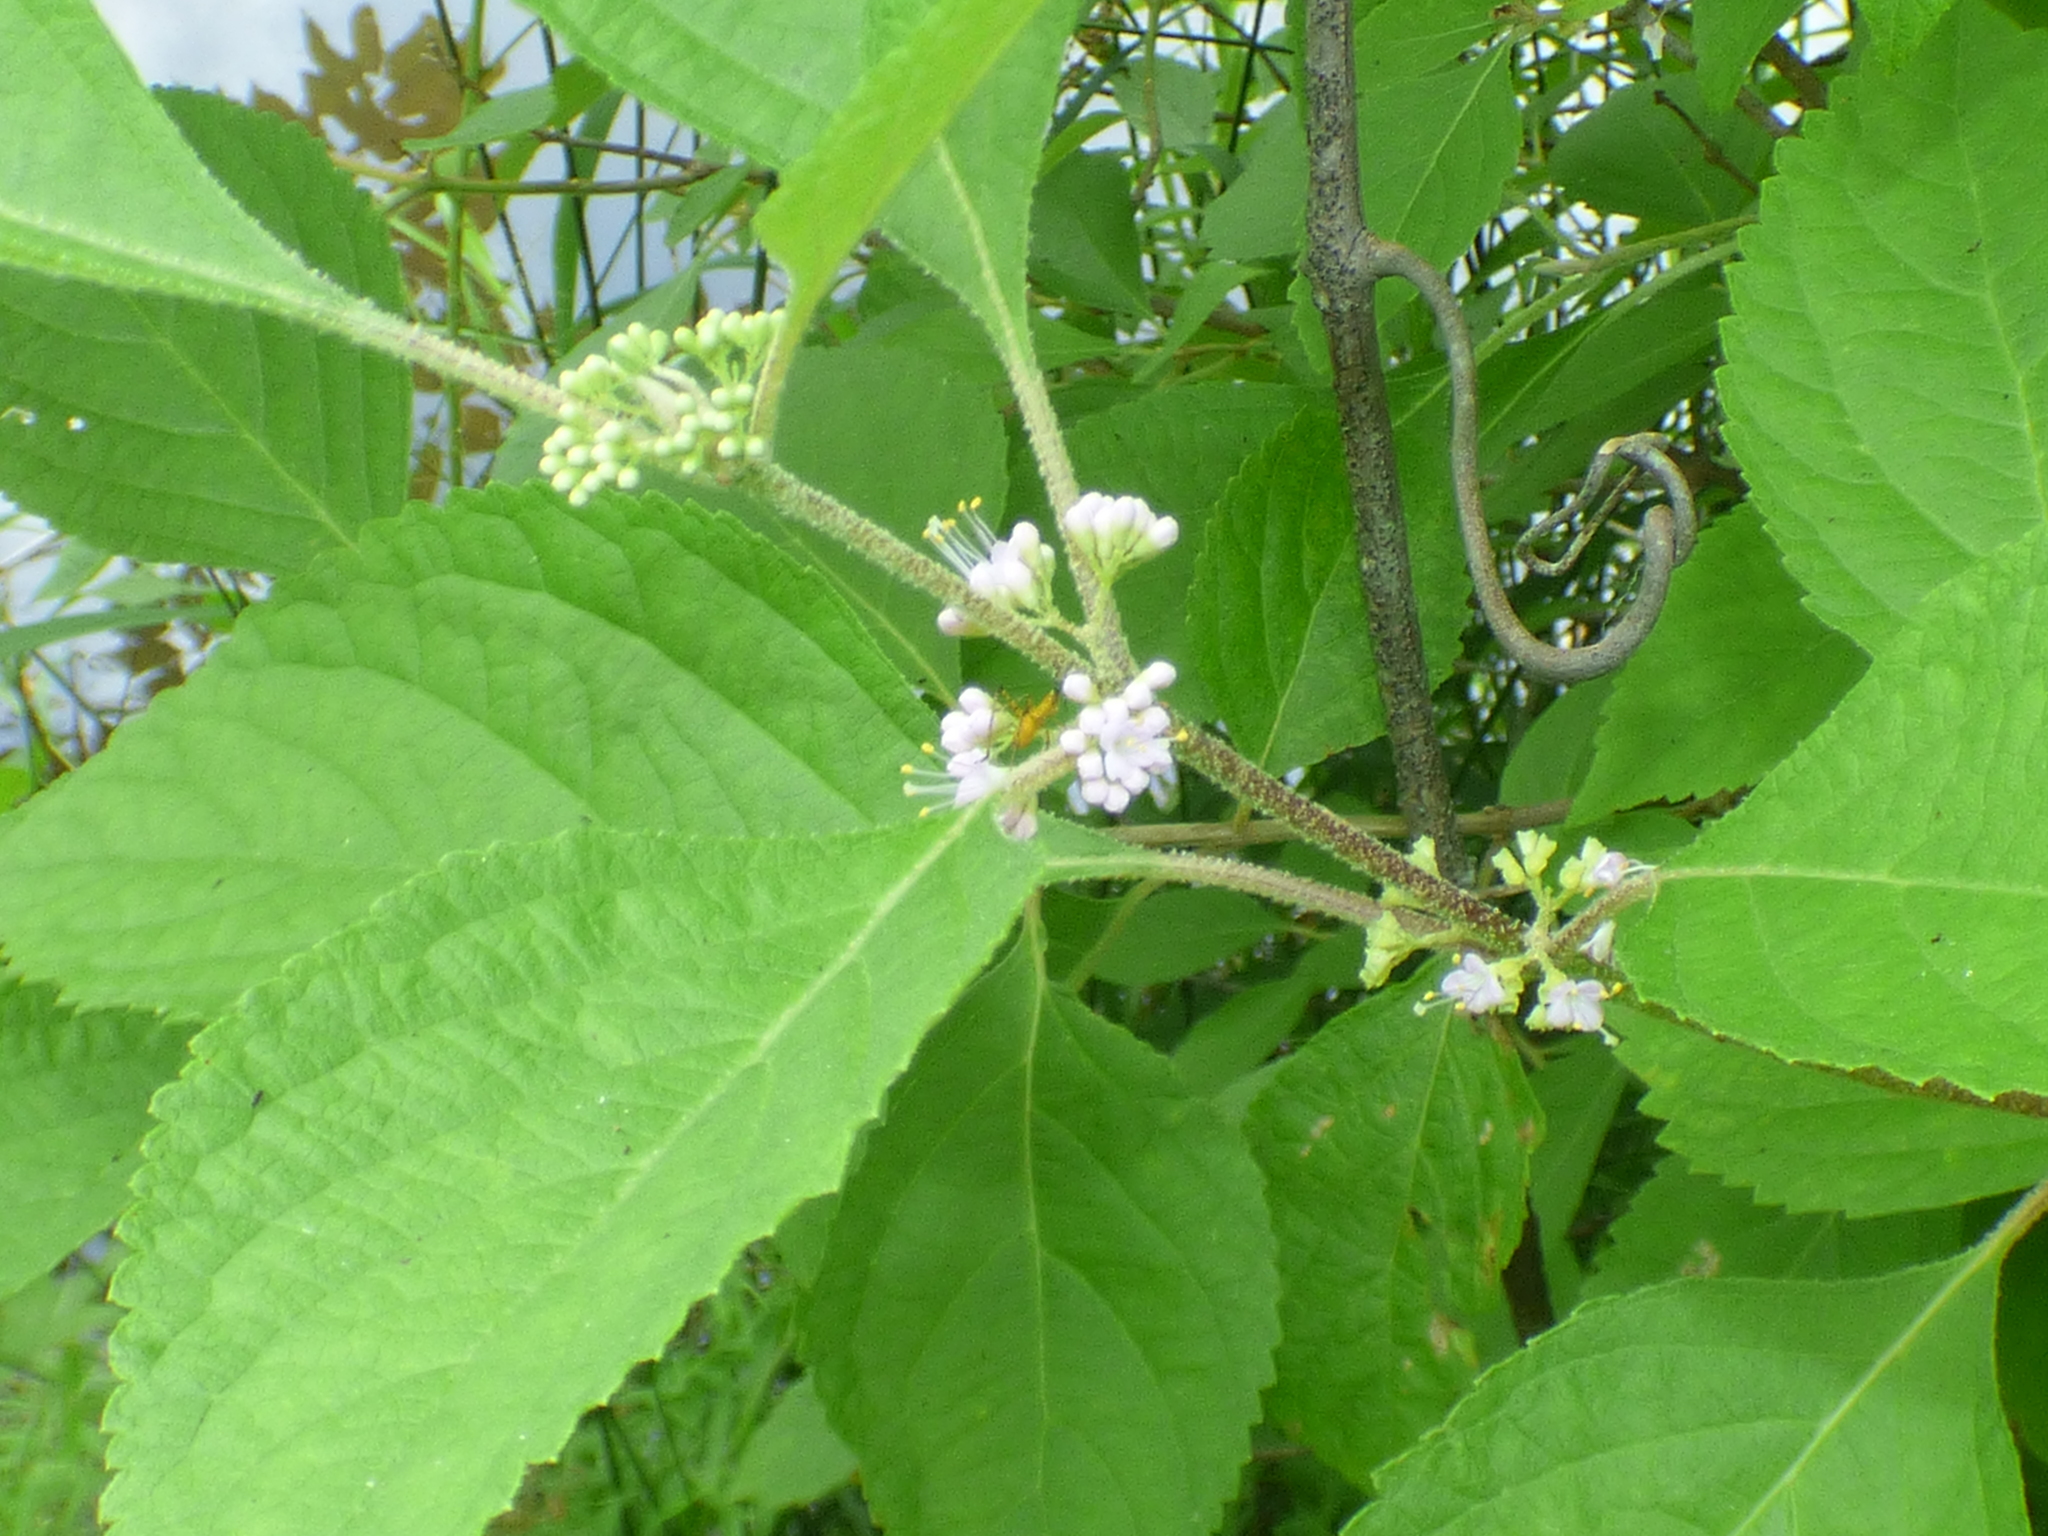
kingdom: Plantae
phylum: Tracheophyta
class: Magnoliopsida
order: Lamiales
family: Lamiaceae
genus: Callicarpa
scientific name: Callicarpa americana
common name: American beautyberry
